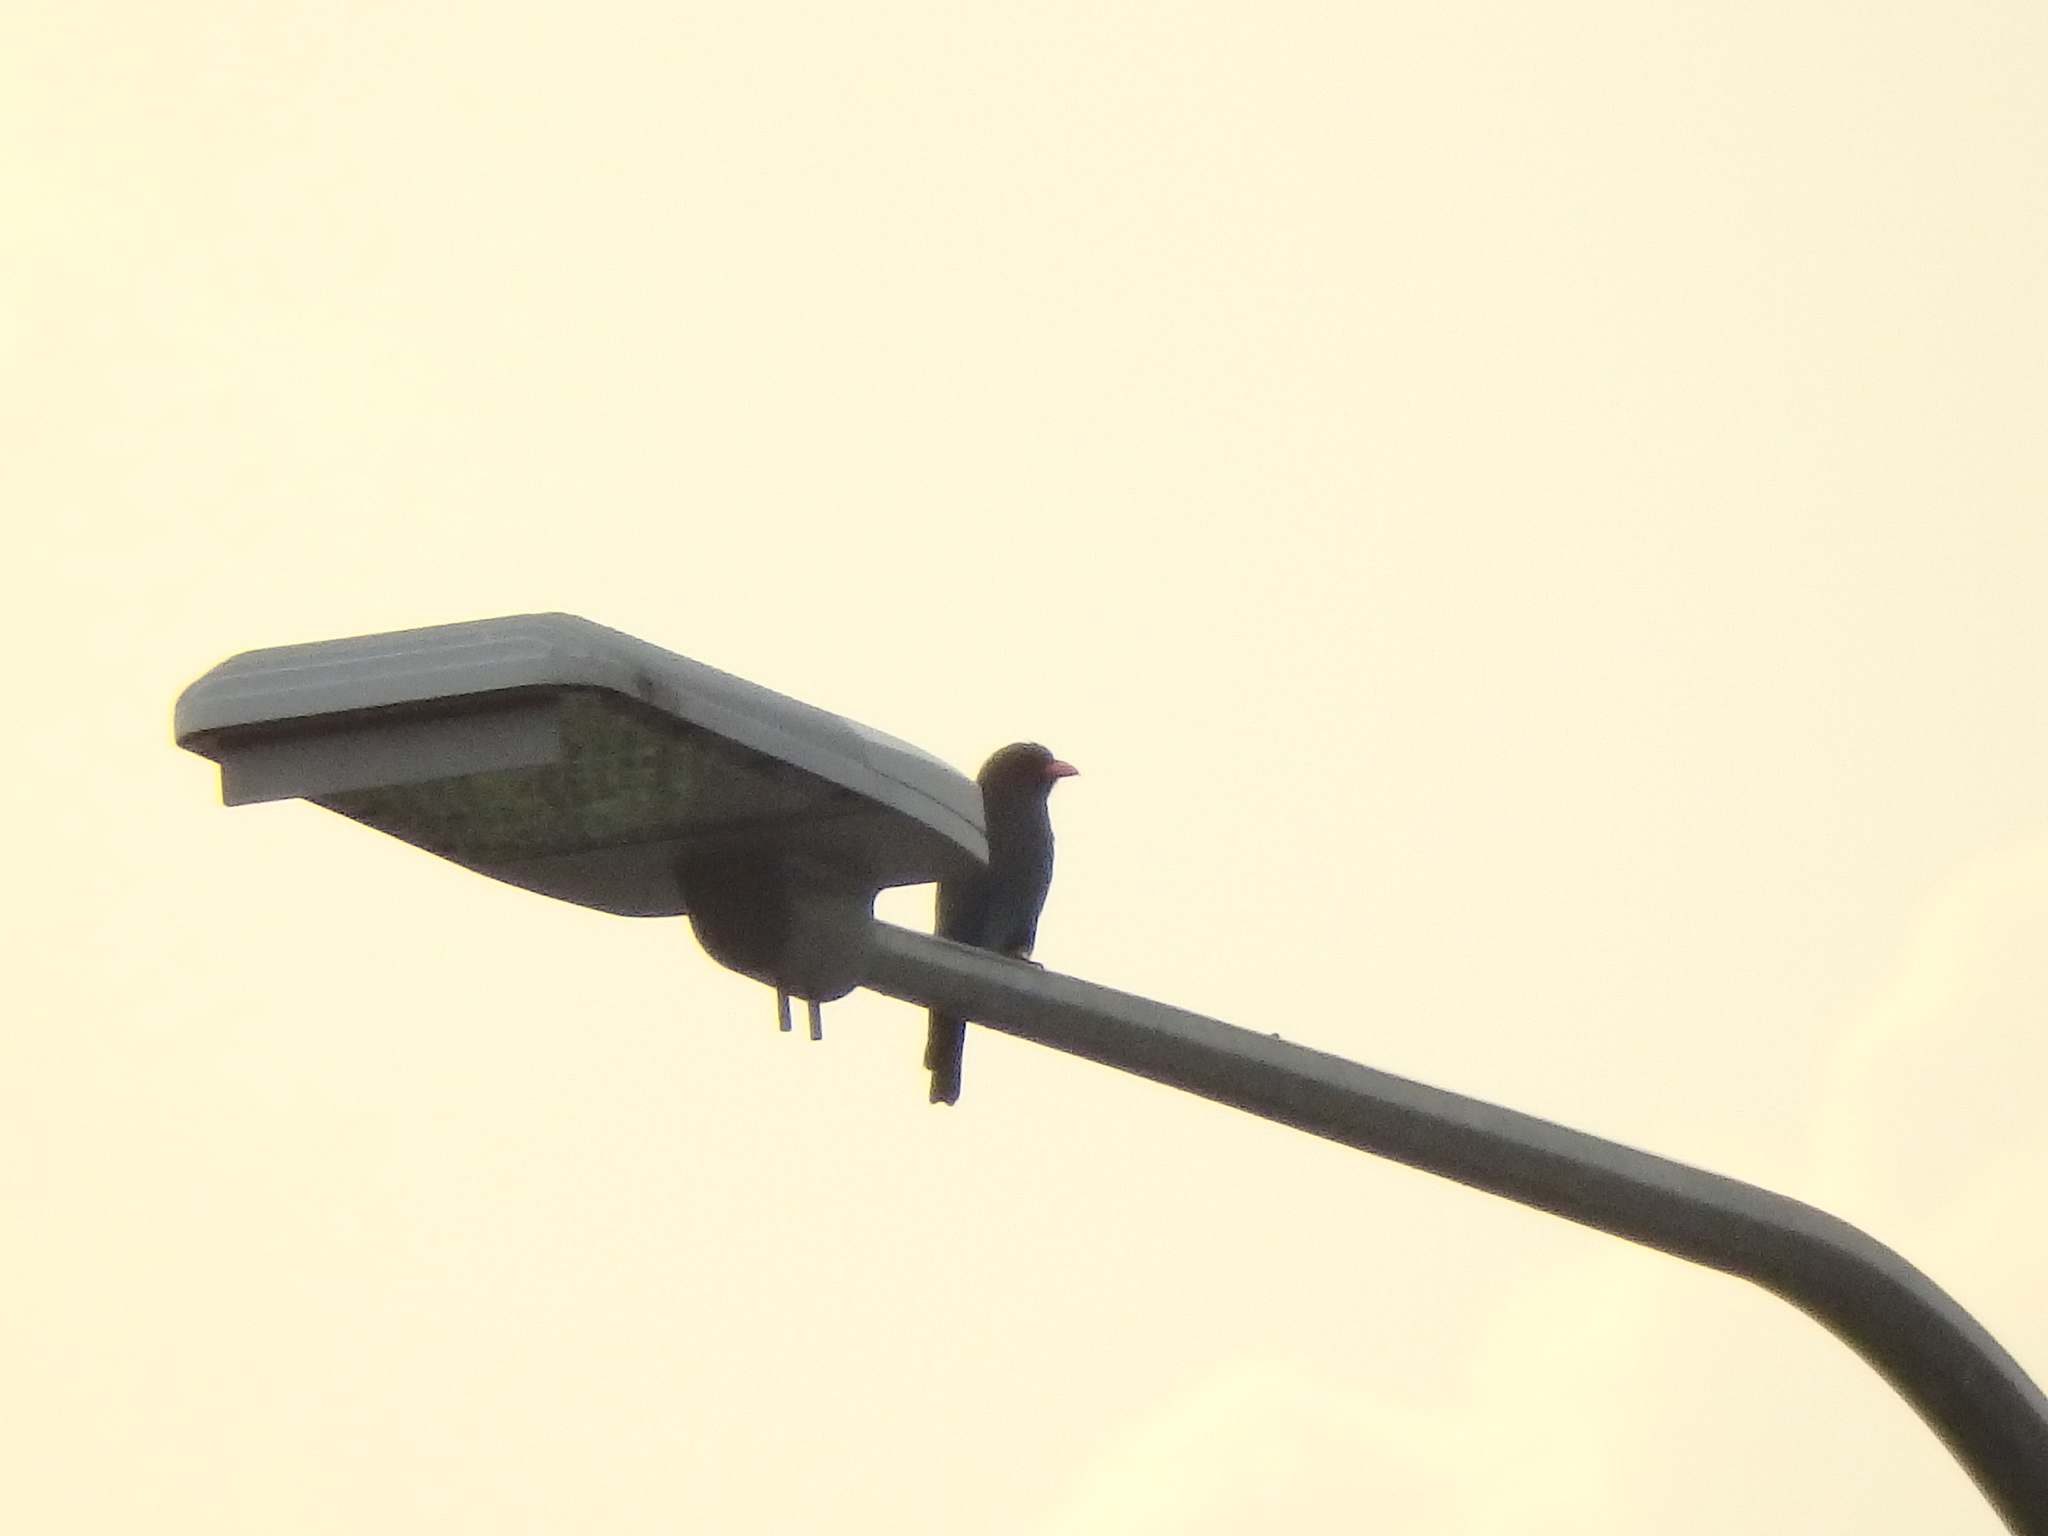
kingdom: Animalia
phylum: Chordata
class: Aves
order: Coraciiformes
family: Coraciidae
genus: Eurystomus
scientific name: Eurystomus orientalis
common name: Oriental dollarbird
